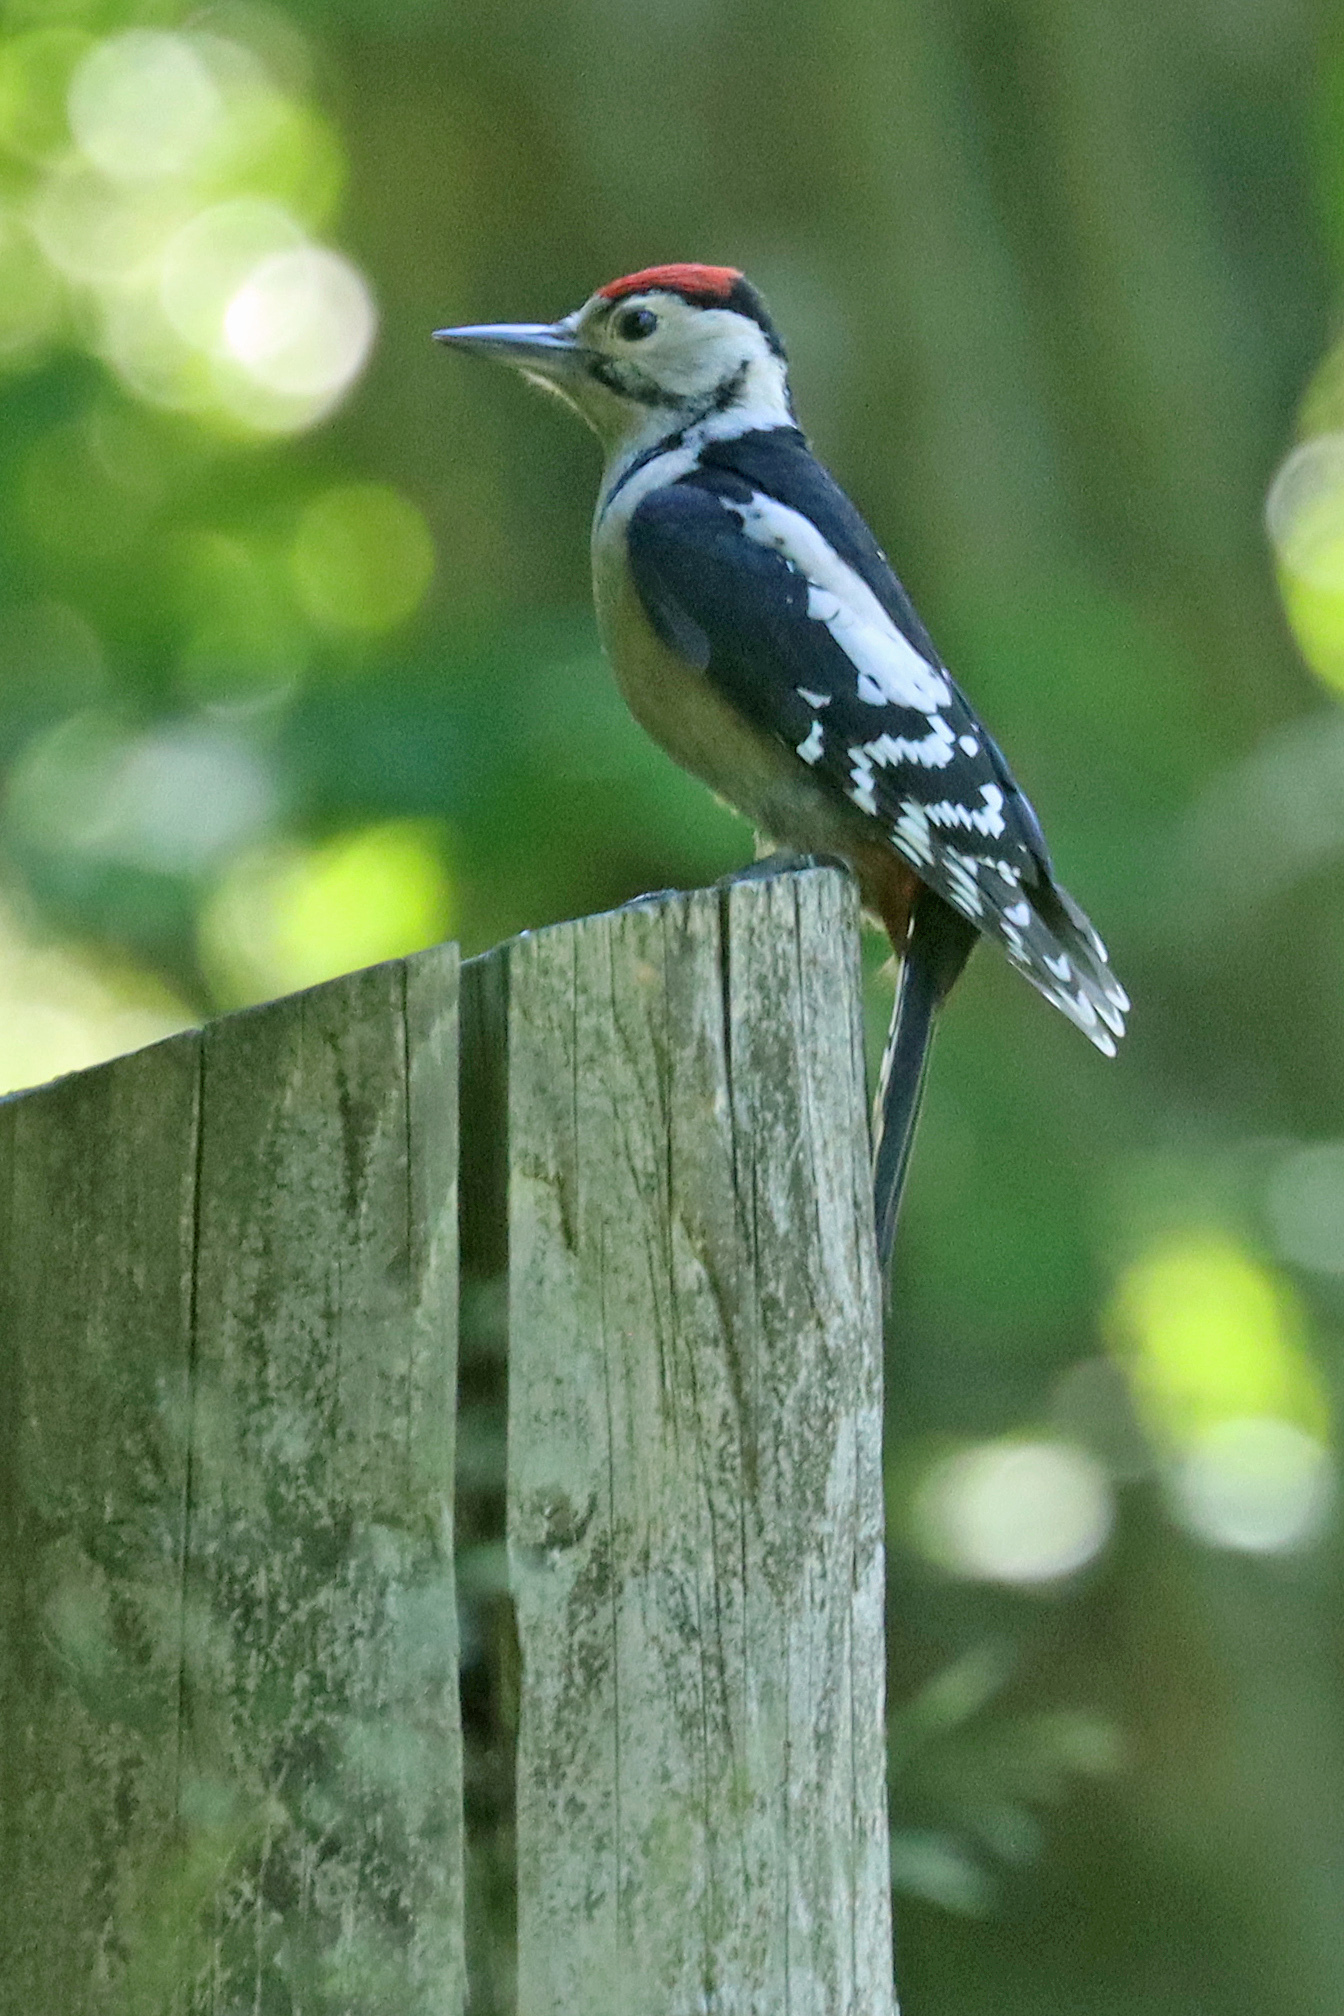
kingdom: Animalia
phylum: Chordata
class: Aves
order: Piciformes
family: Picidae
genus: Dendrocopos
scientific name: Dendrocopos major
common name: Great spotted woodpecker
